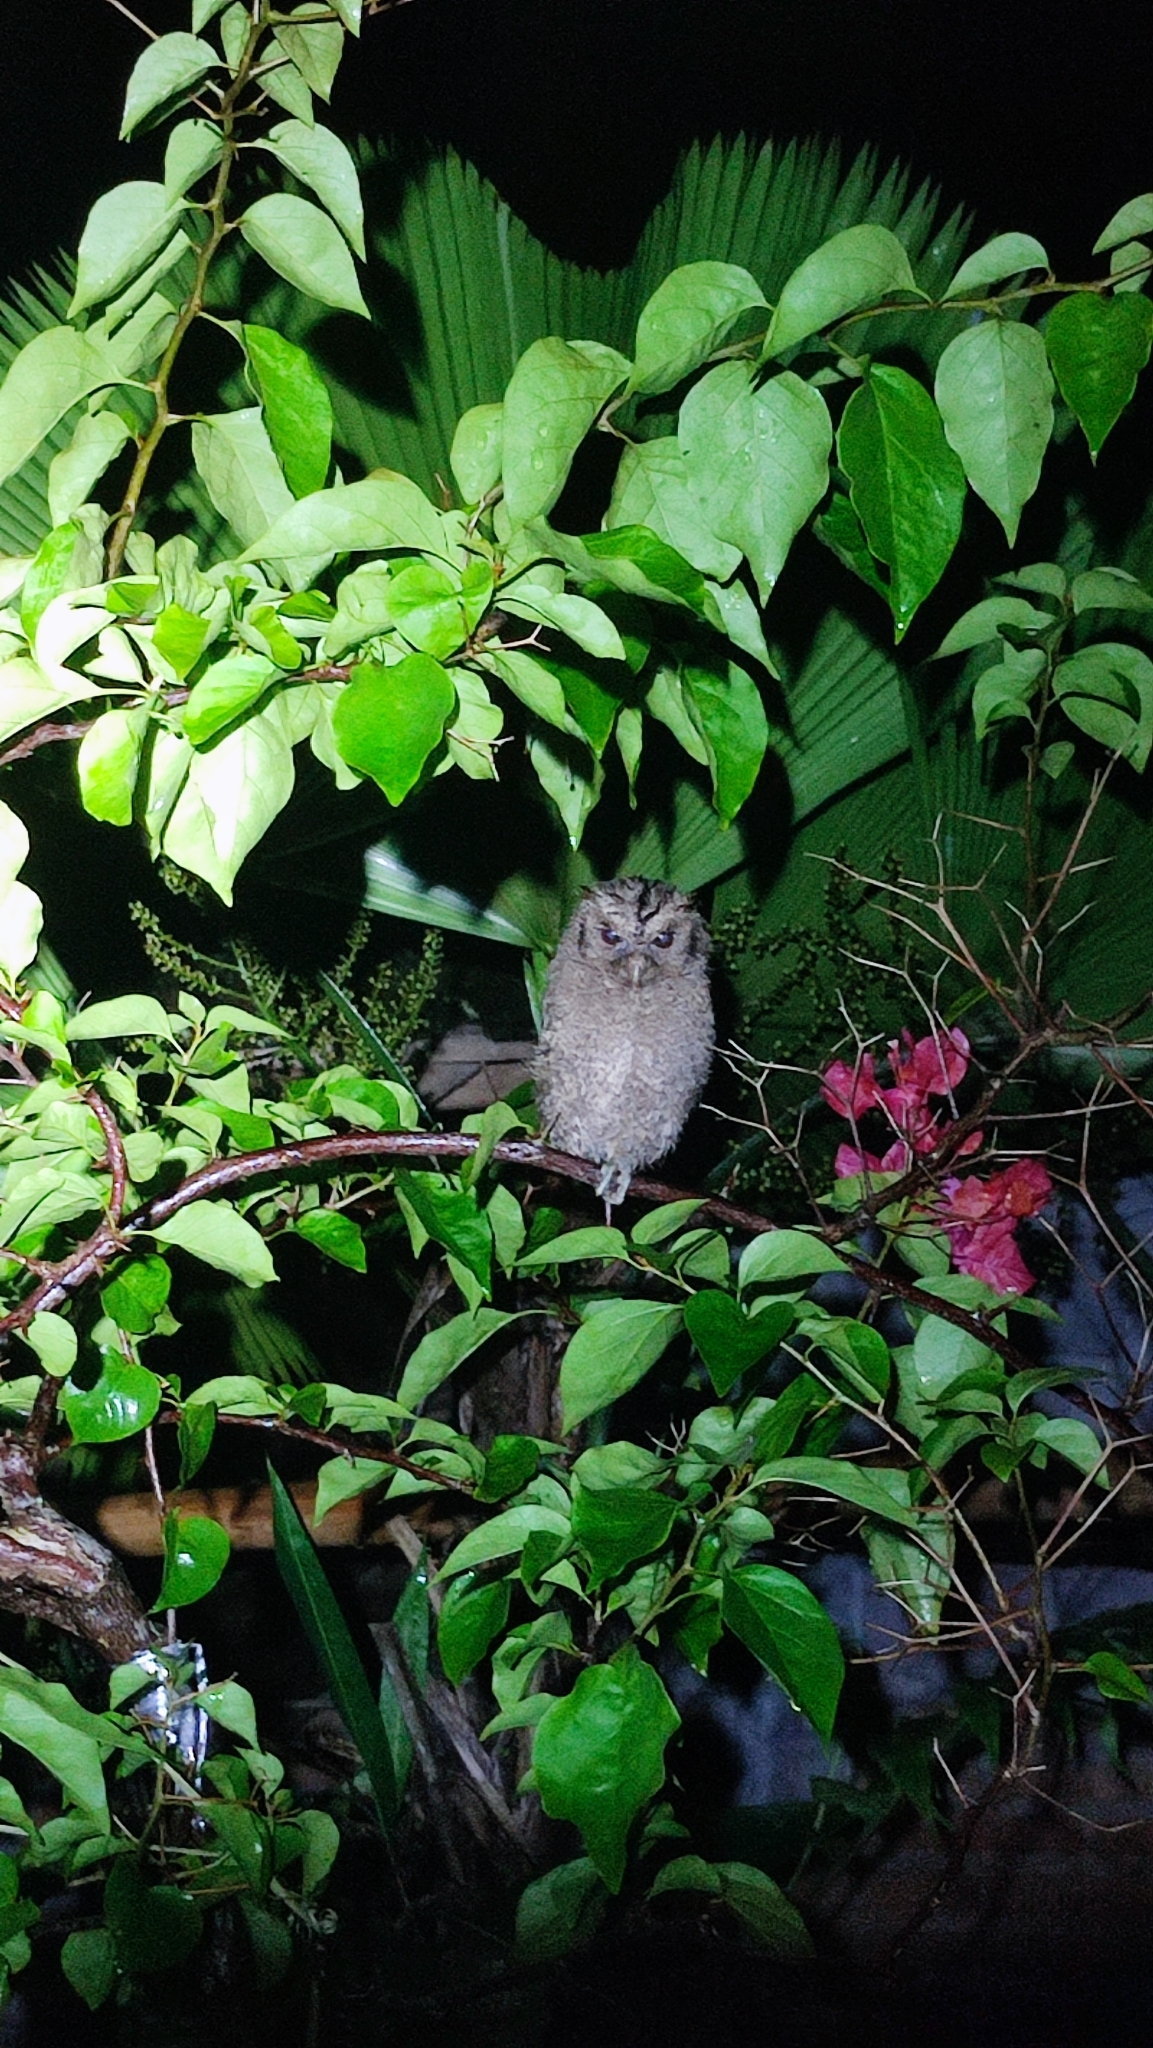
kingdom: Animalia
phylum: Chordata
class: Aves
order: Strigiformes
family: Strigidae
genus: Otus
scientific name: Otus lempiji
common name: Sunda scops-owl
